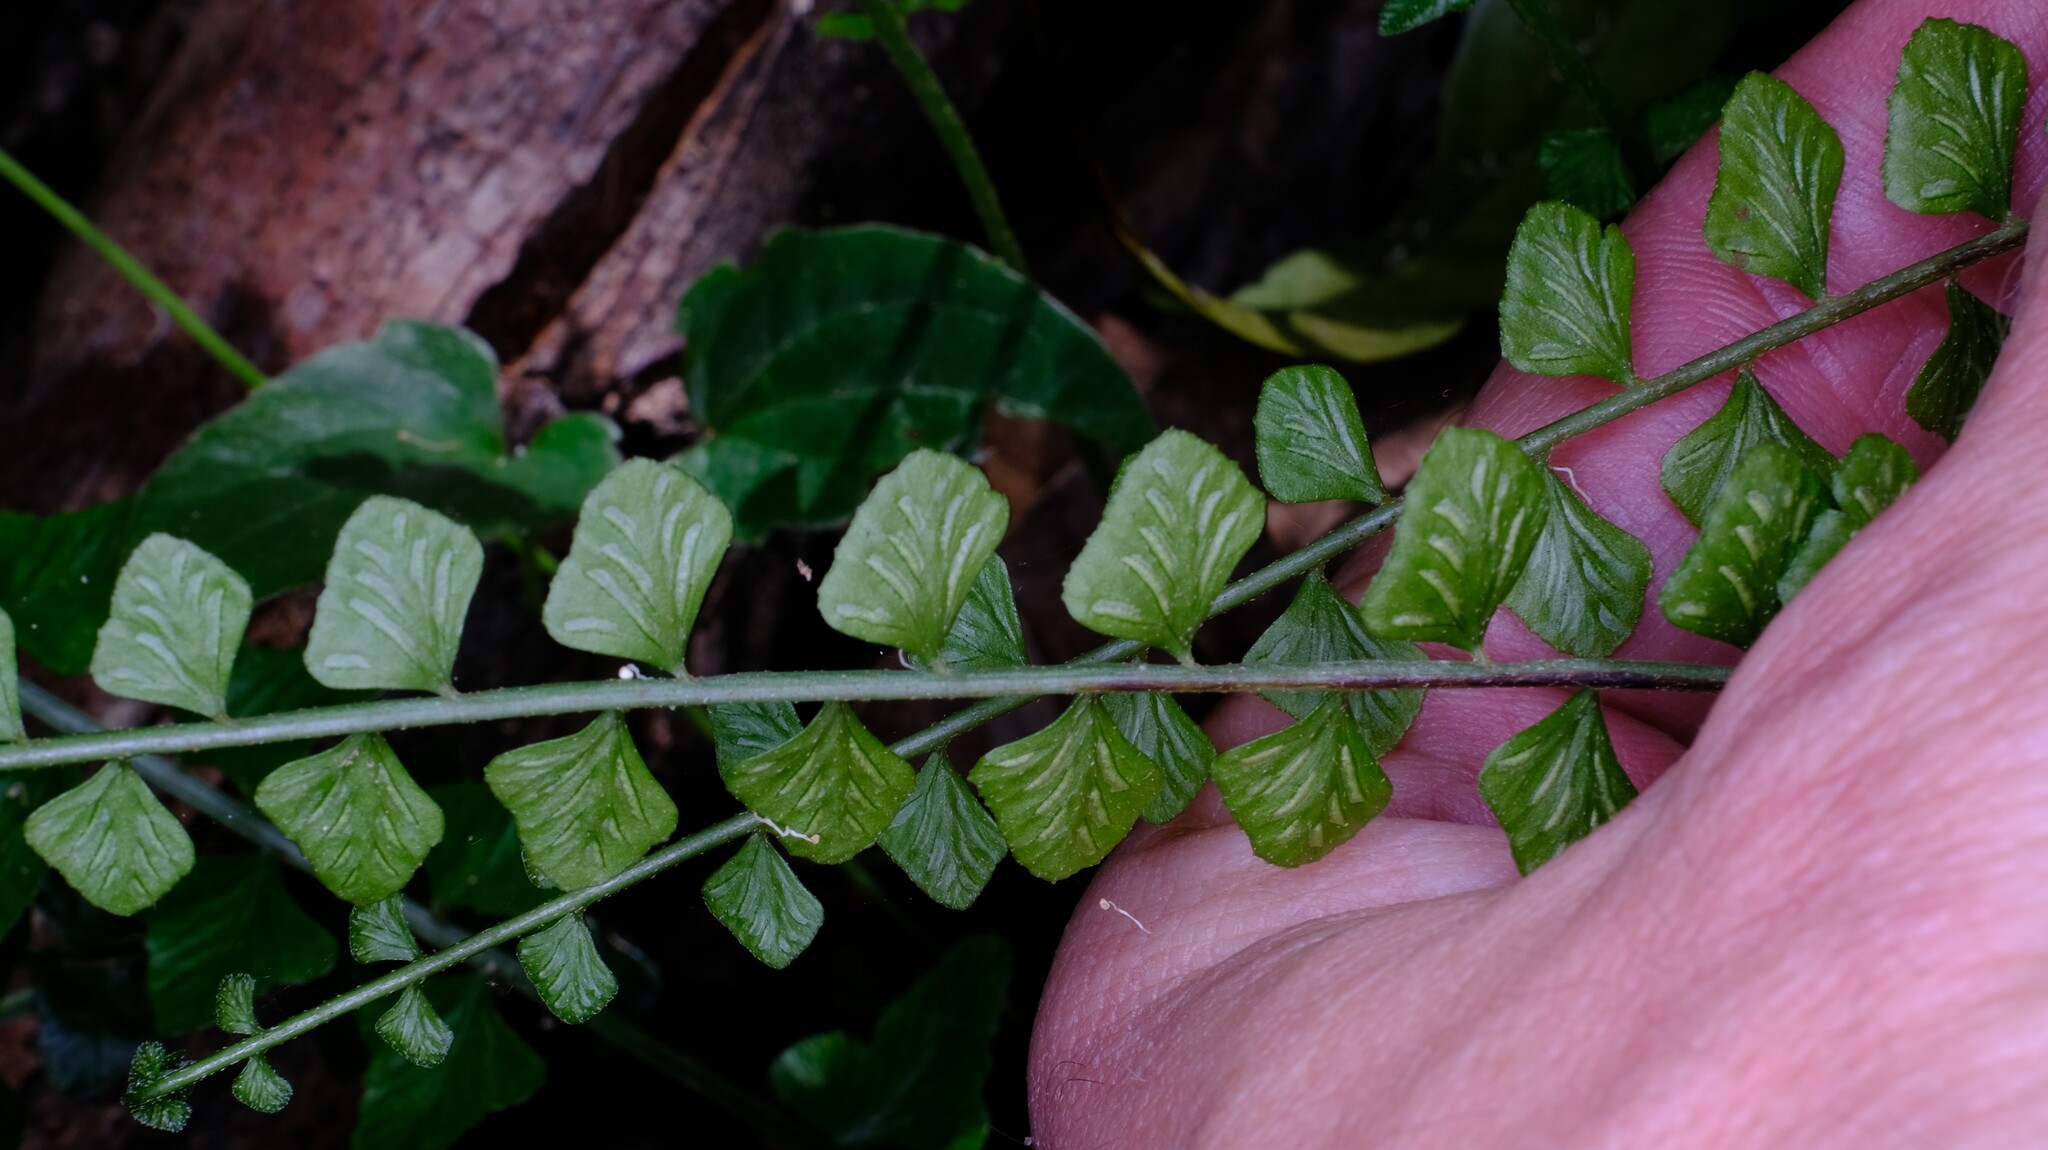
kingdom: Plantae
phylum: Tracheophyta
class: Polypodiopsida
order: Polypodiales
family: Aspleniaceae
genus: Asplenium
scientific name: Asplenium flabellifolium
